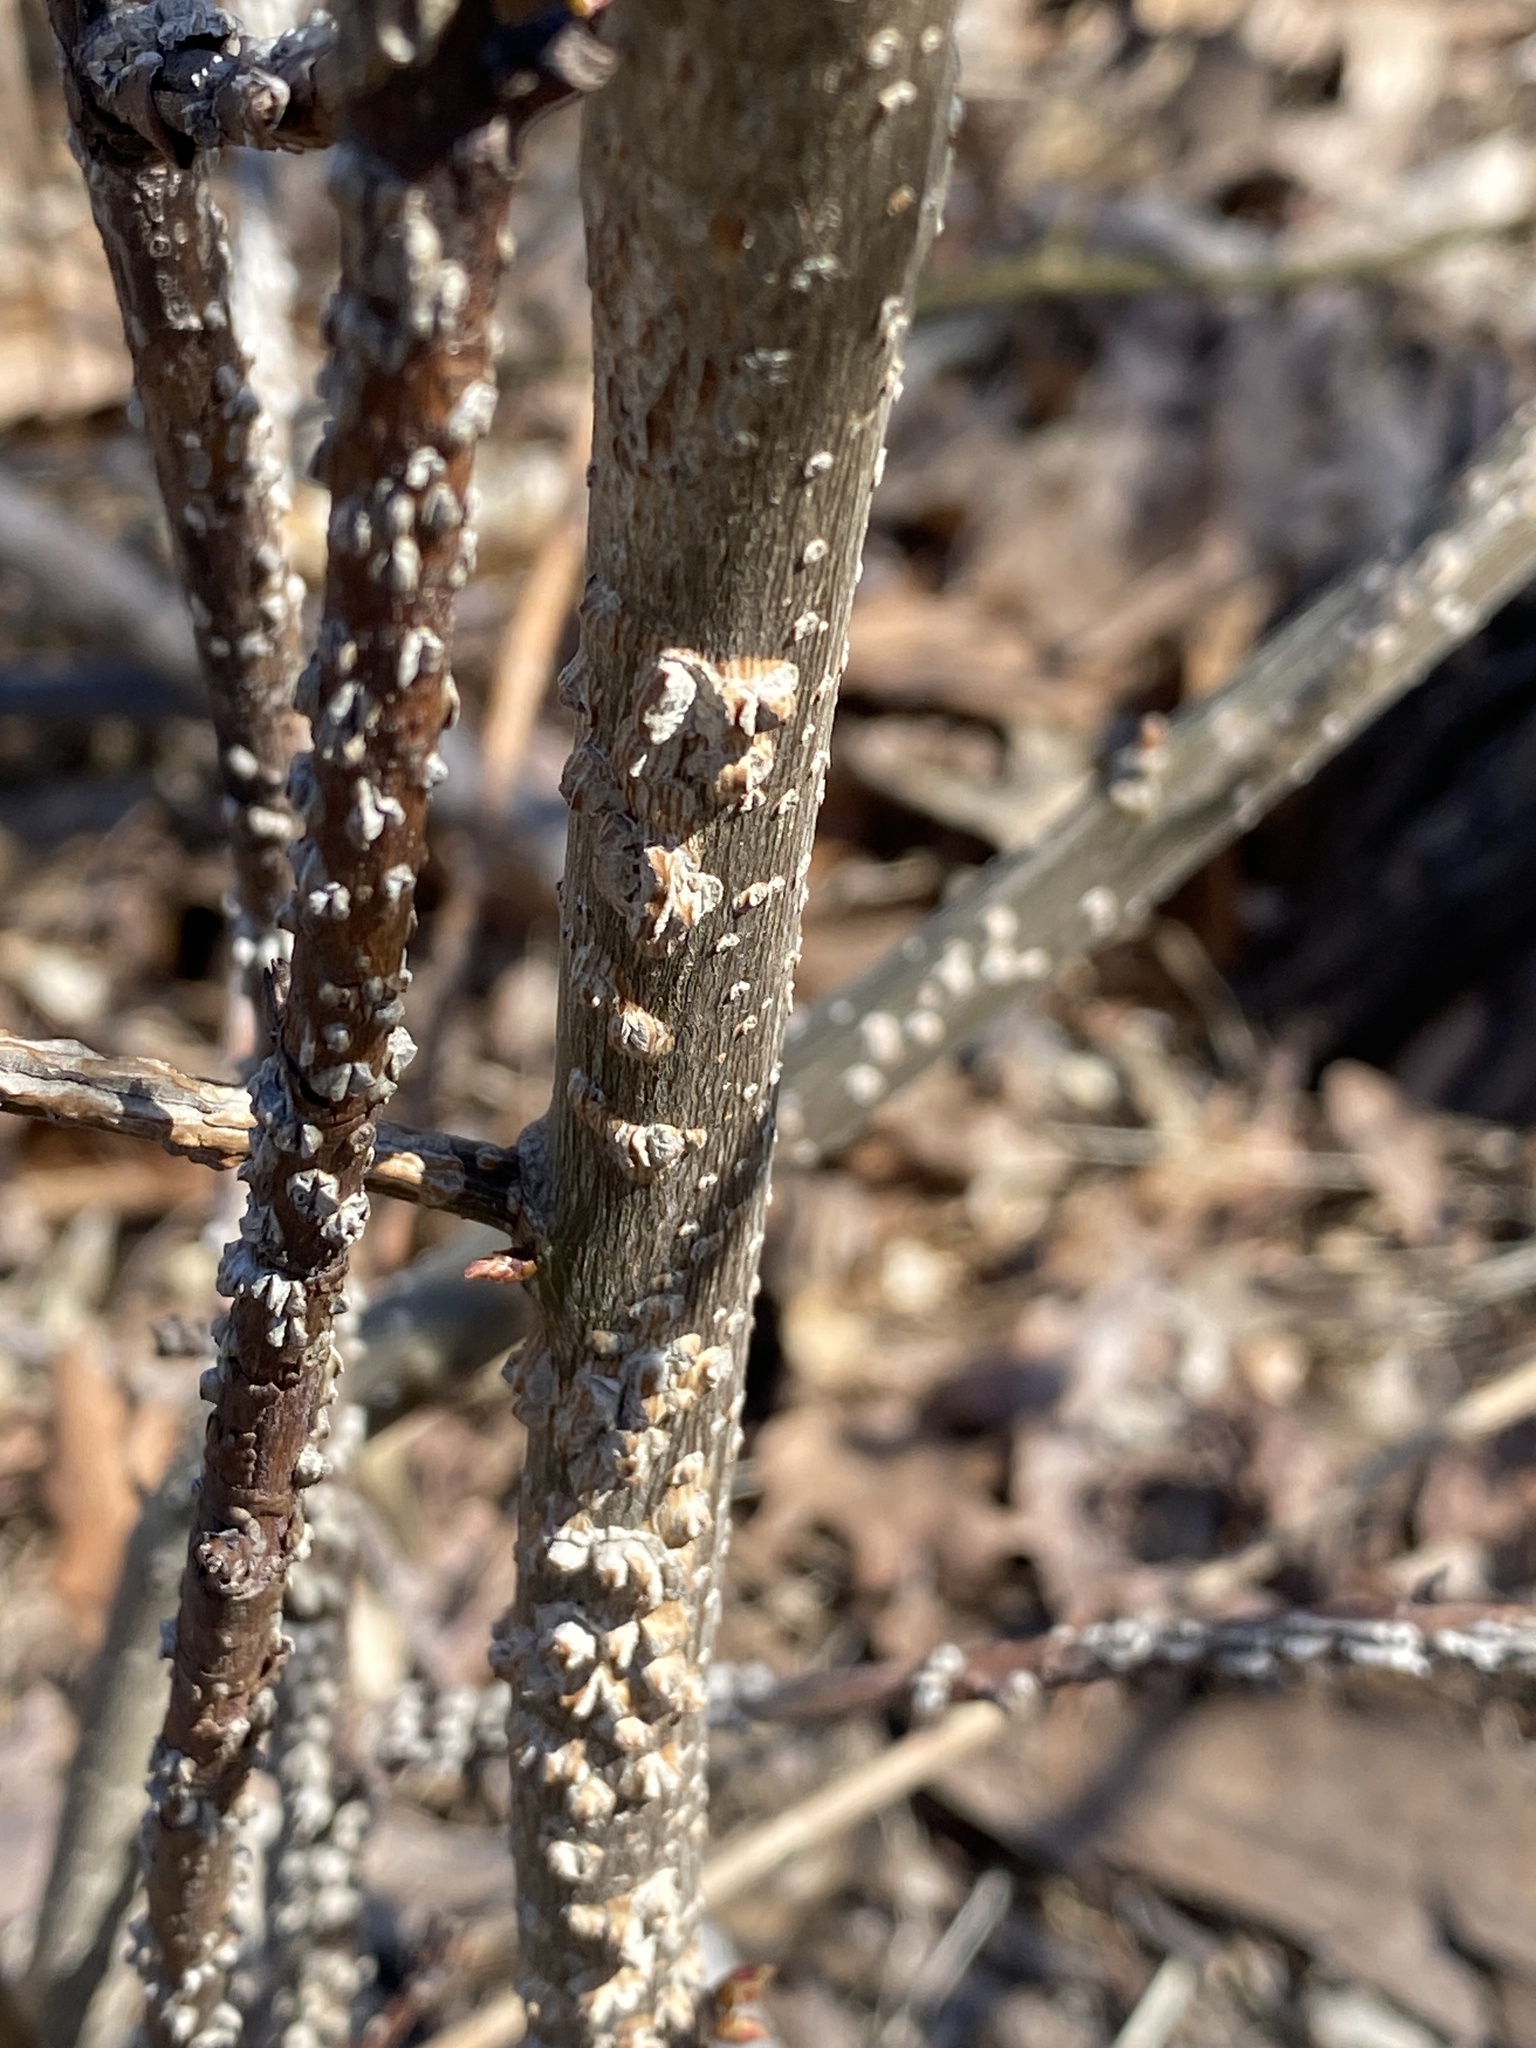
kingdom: Plantae
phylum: Tracheophyta
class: Magnoliopsida
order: Saxifragales
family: Altingiaceae
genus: Liquidambar
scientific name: Liquidambar styraciflua
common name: Sweet gum
